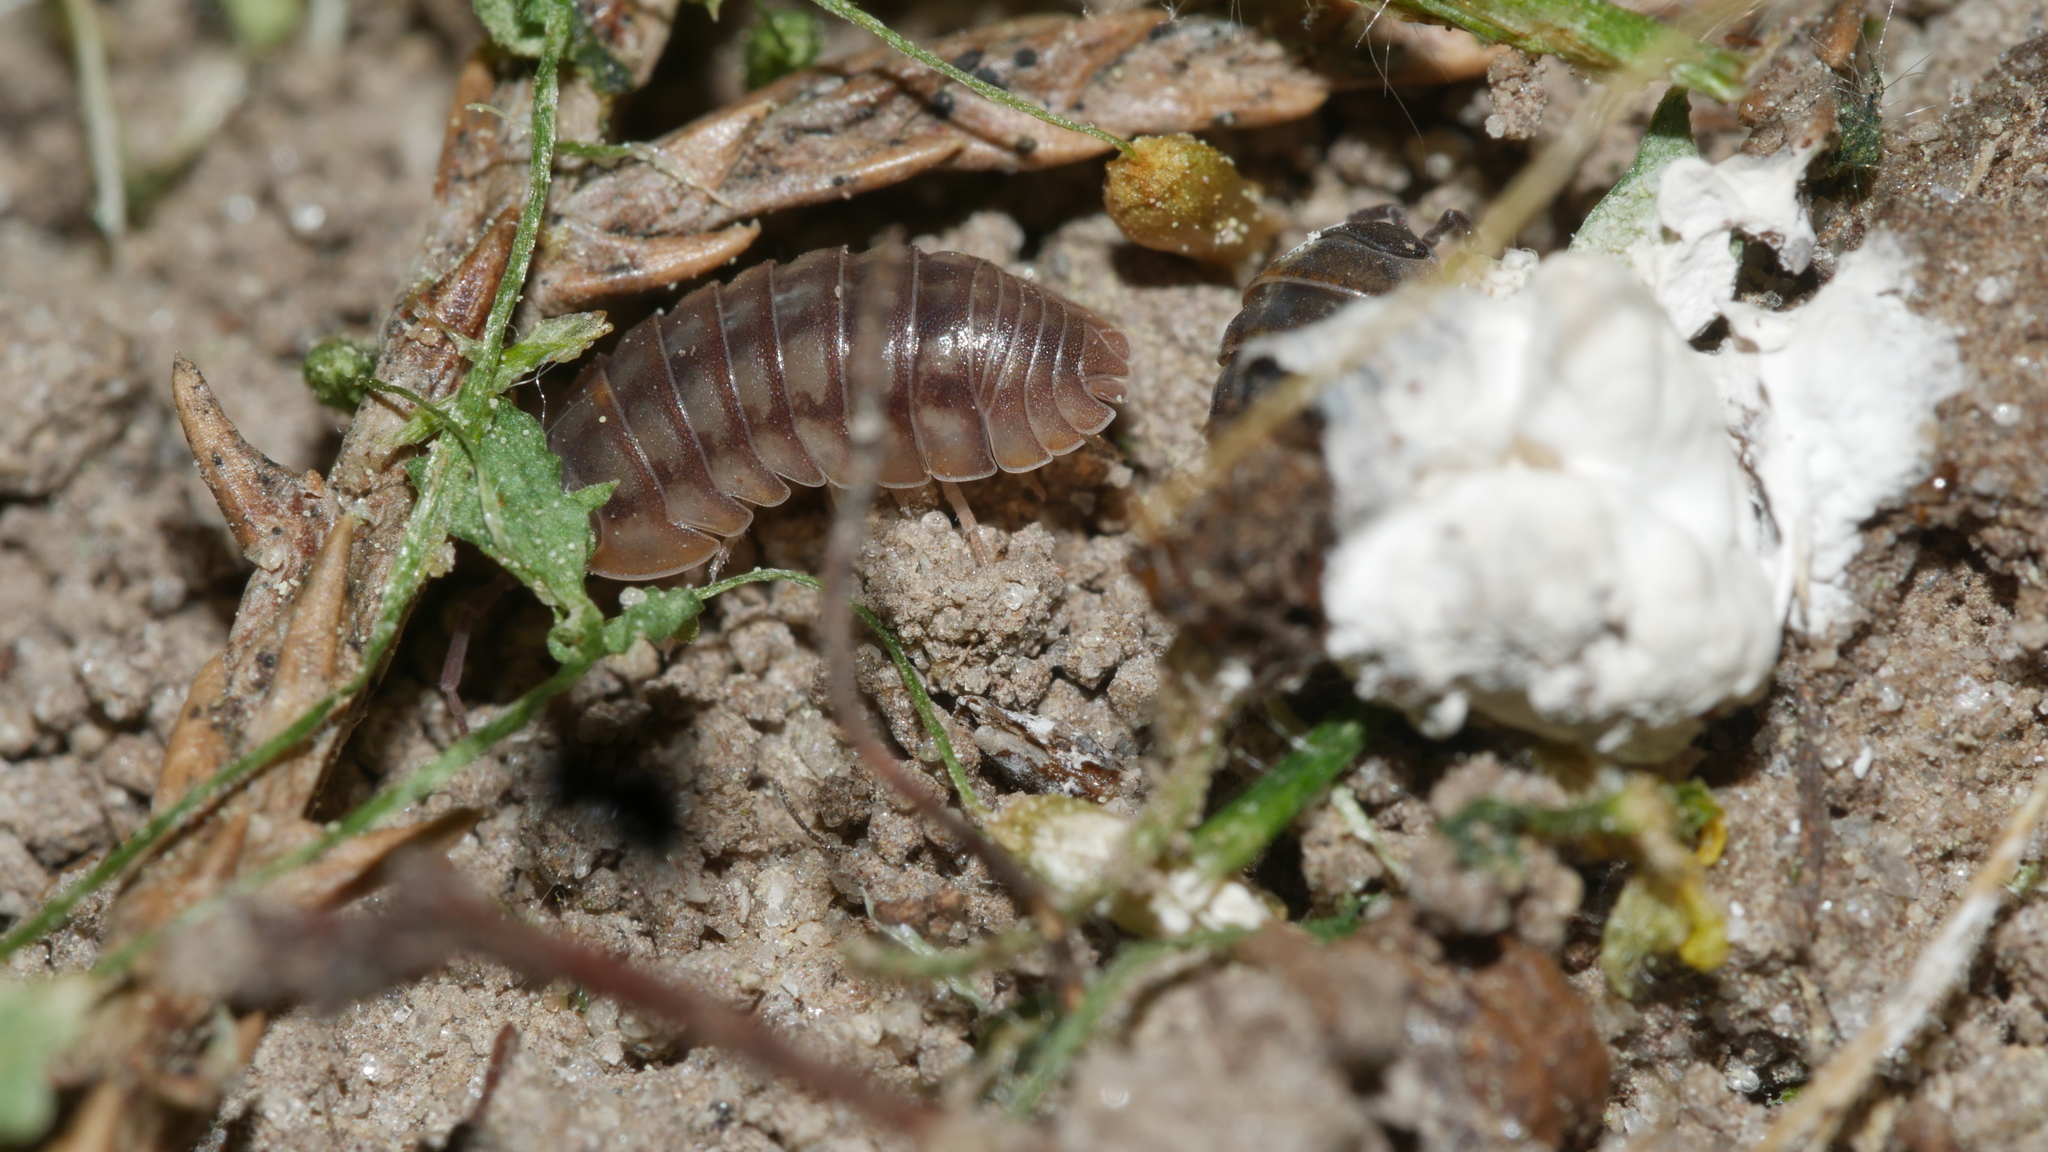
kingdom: Animalia
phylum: Arthropoda
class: Malacostraca
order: Isopoda
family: Armadillidiidae
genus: Armadillidium
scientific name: Armadillidium nasatum
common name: Isopod
